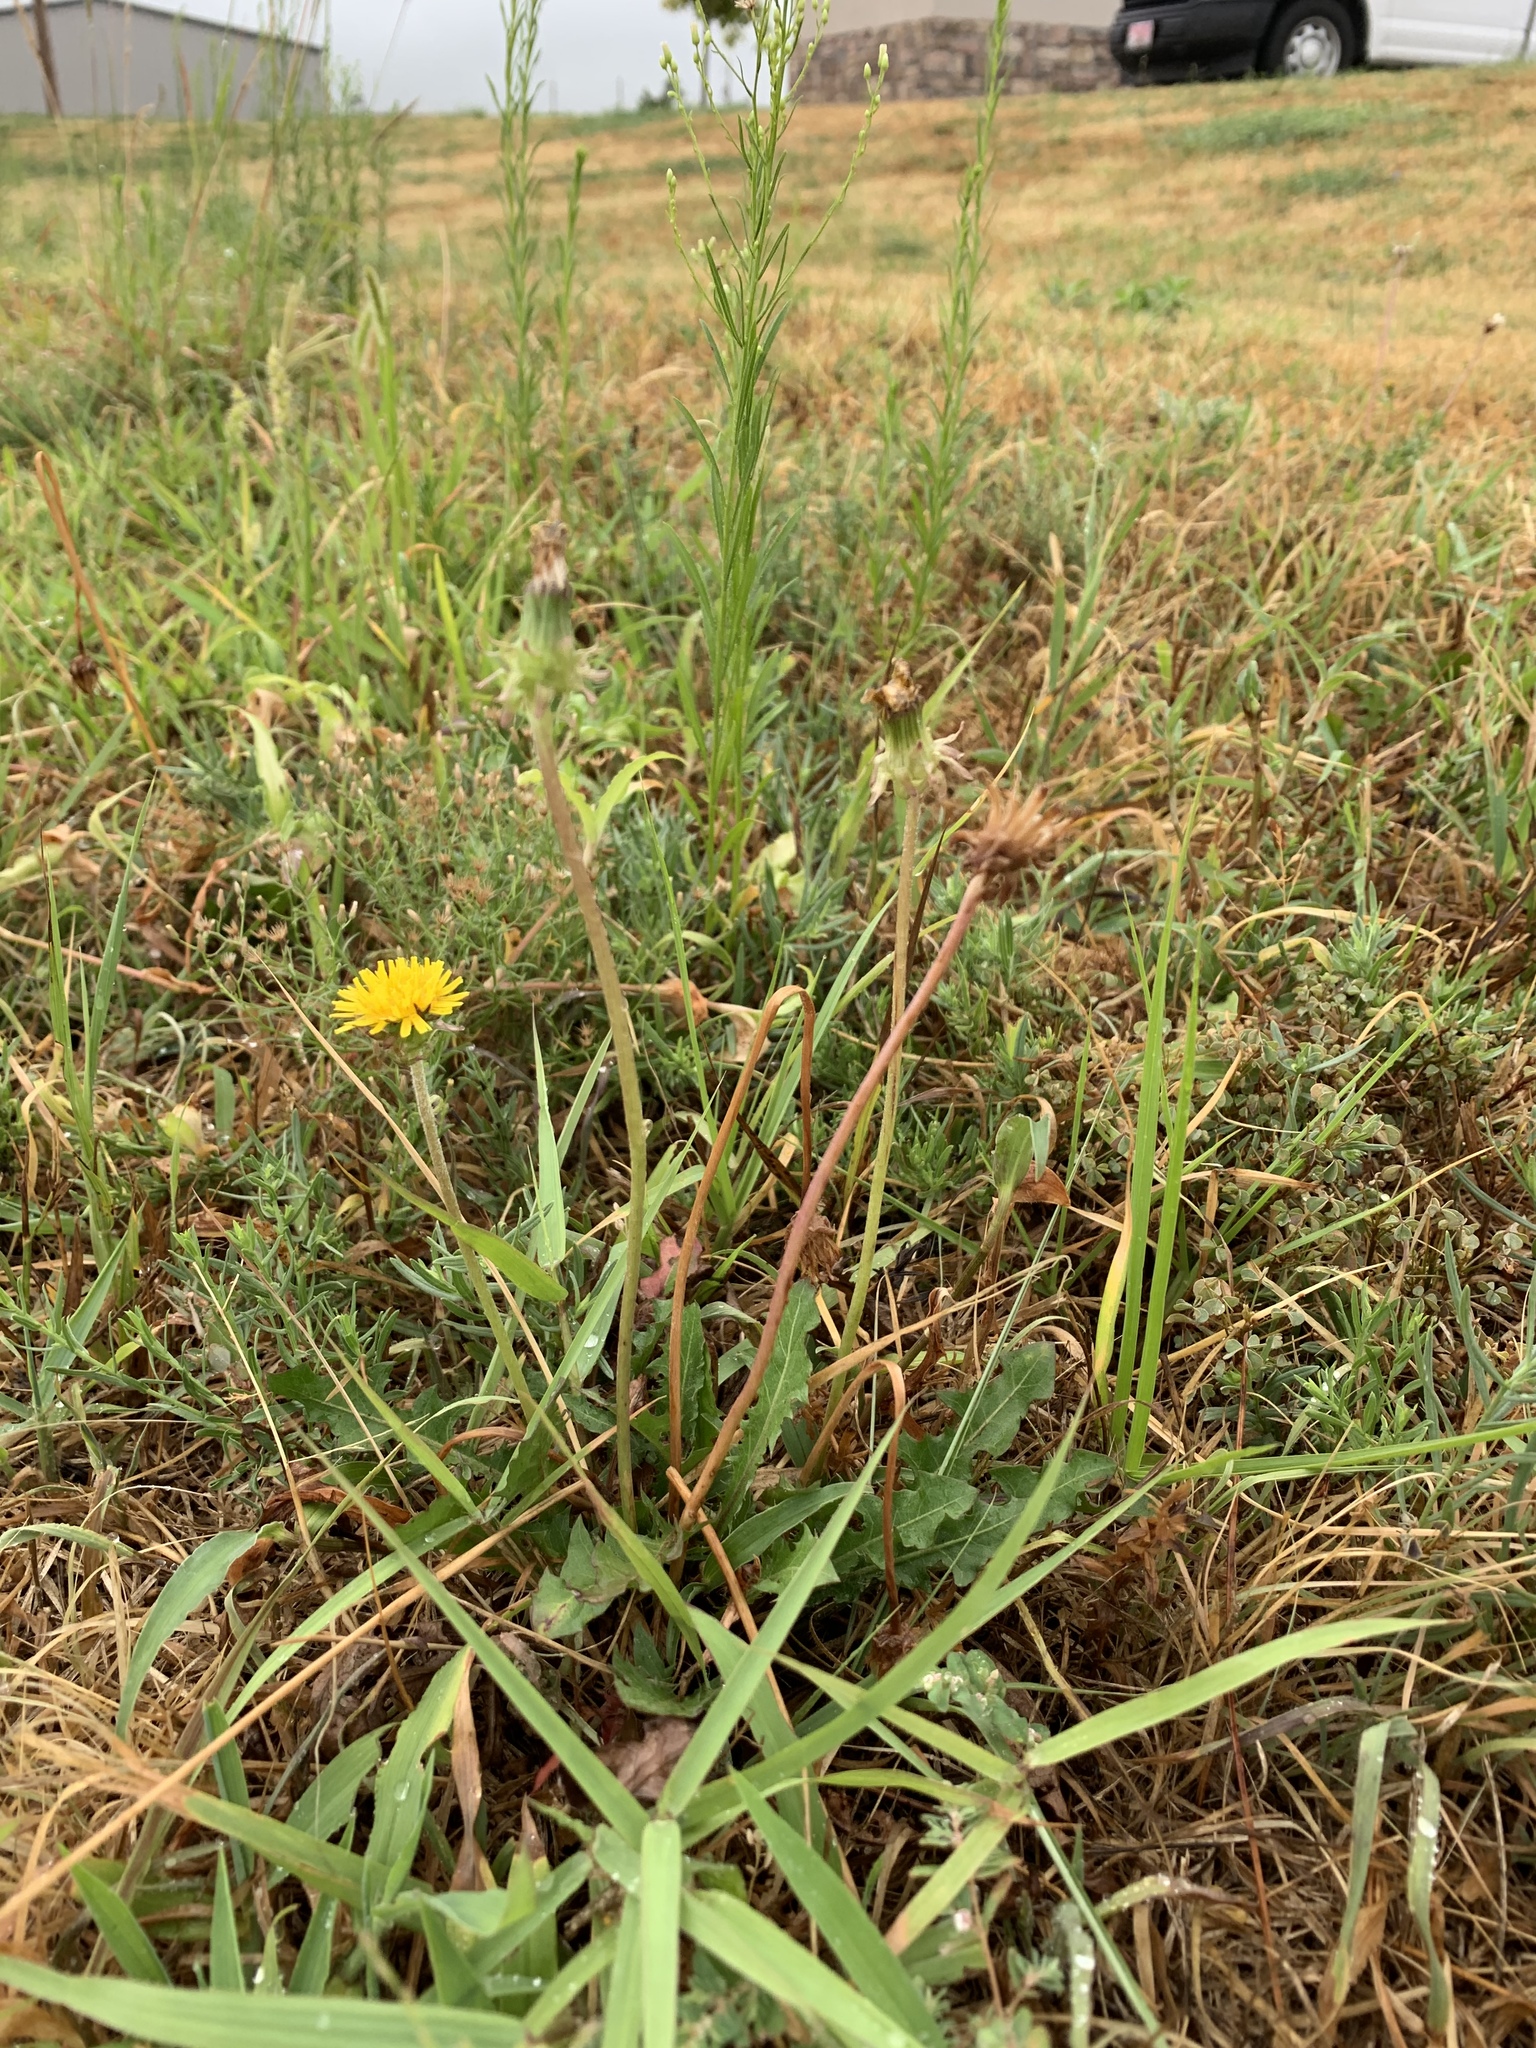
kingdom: Plantae
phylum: Tracheophyta
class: Magnoliopsida
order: Asterales
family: Asteraceae
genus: Taraxacum
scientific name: Taraxacum officinale
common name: Common dandelion
